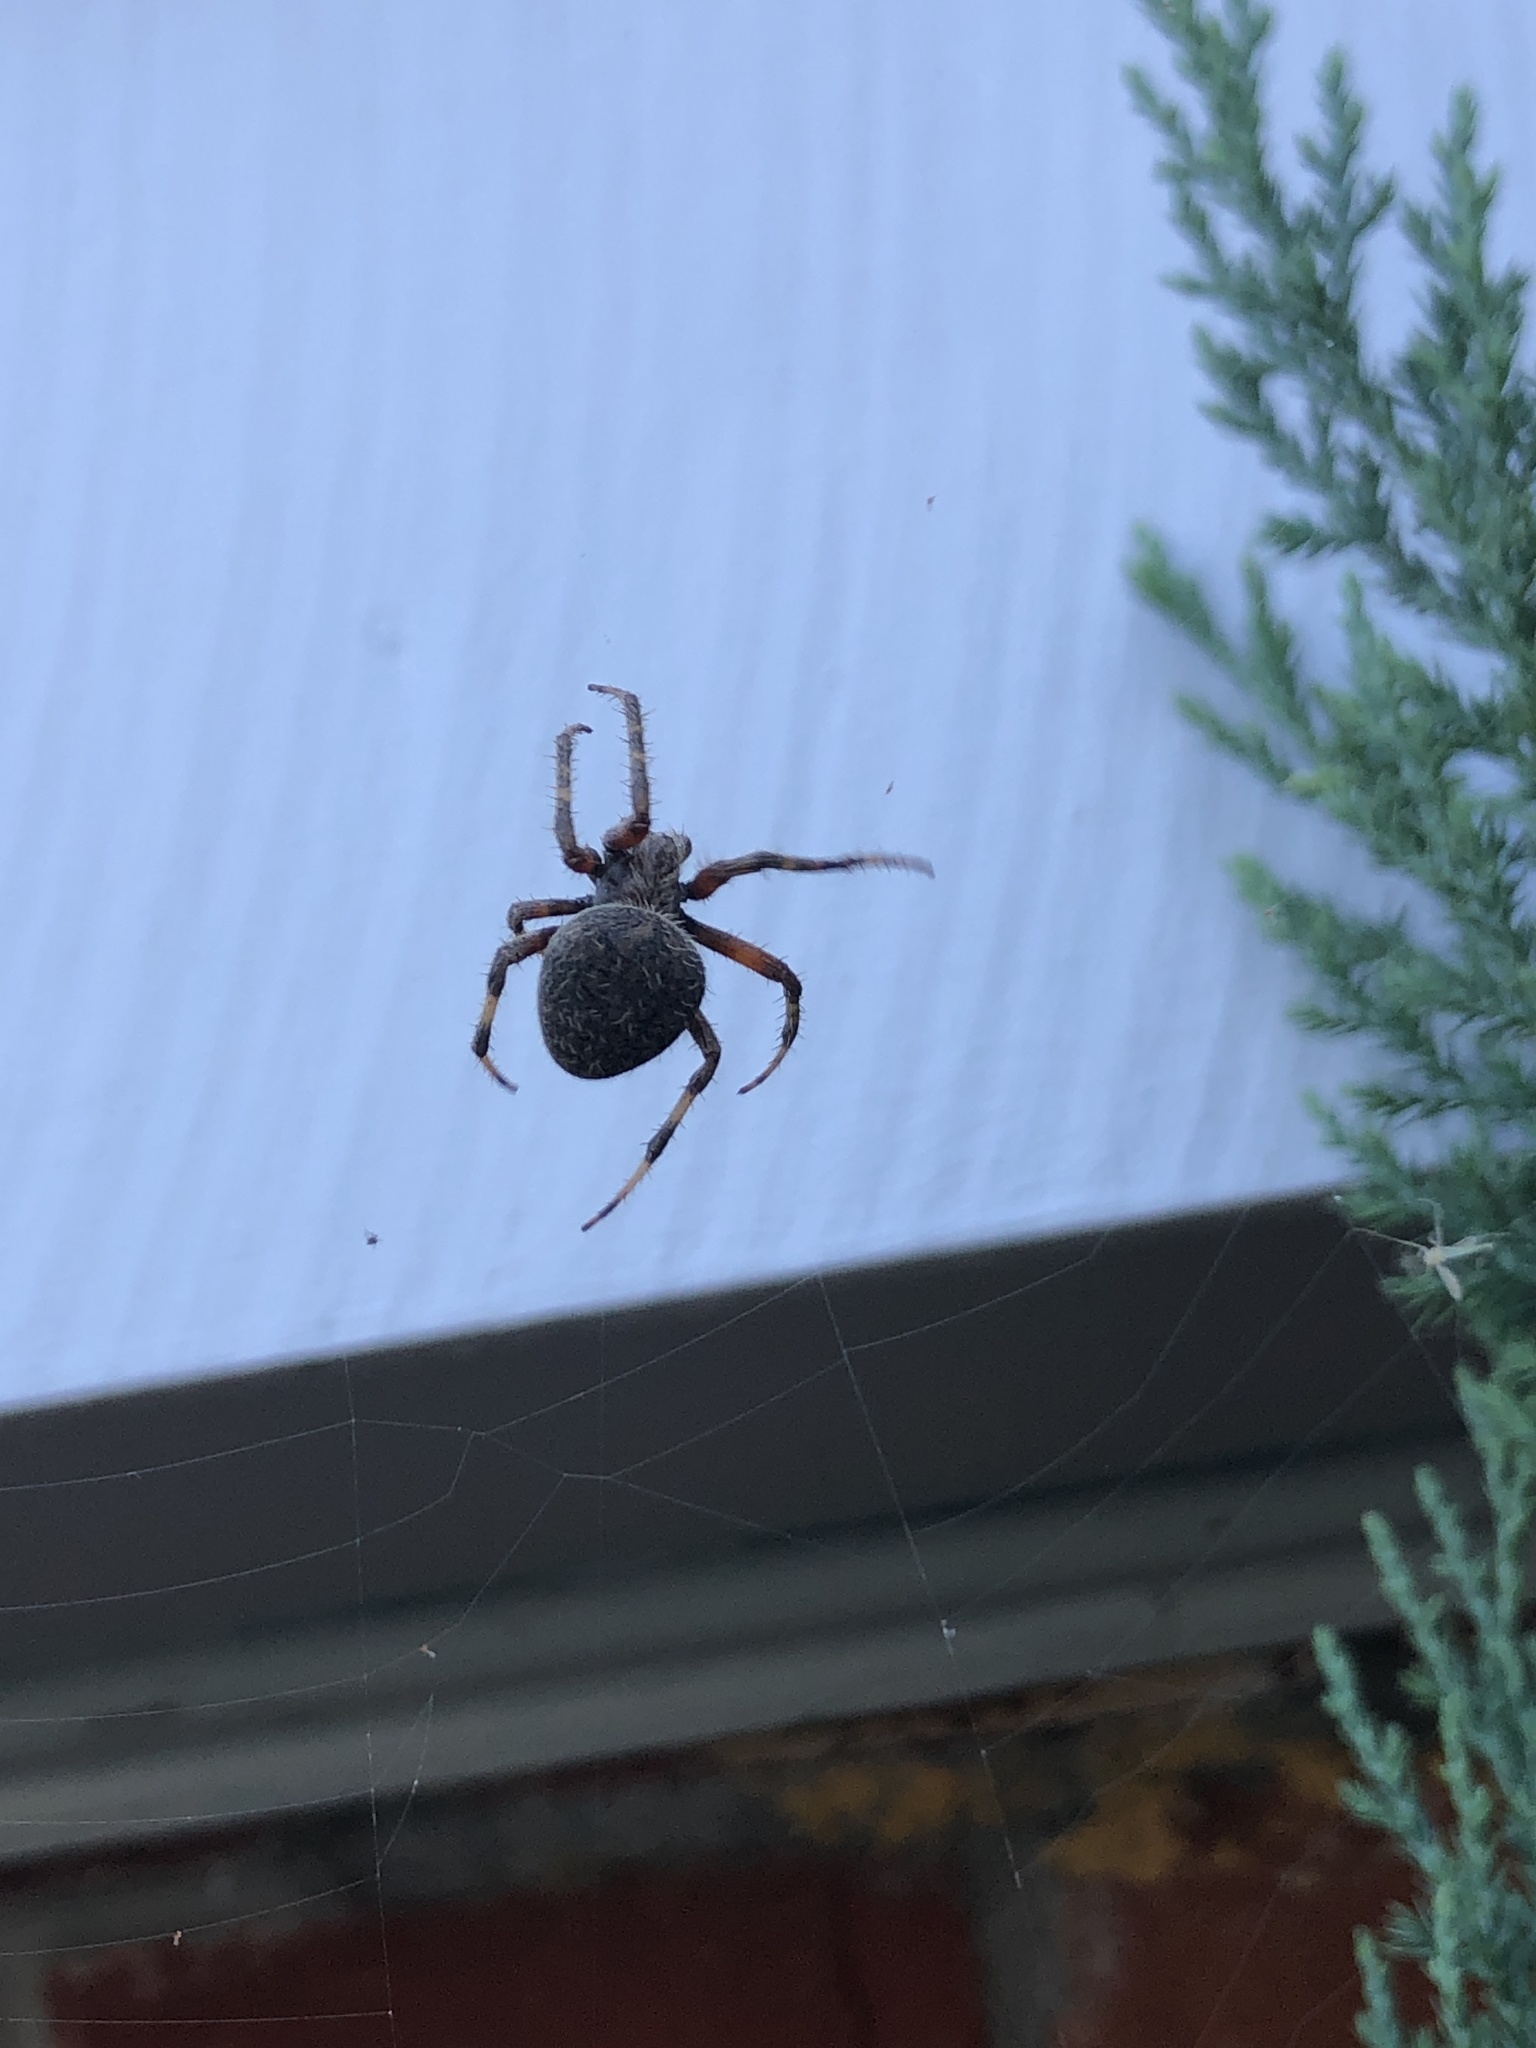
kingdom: Animalia
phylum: Arthropoda
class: Arachnida
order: Araneae
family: Araneidae
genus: Neoscona
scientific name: Neoscona crucifera
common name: Spotted orbweaver
